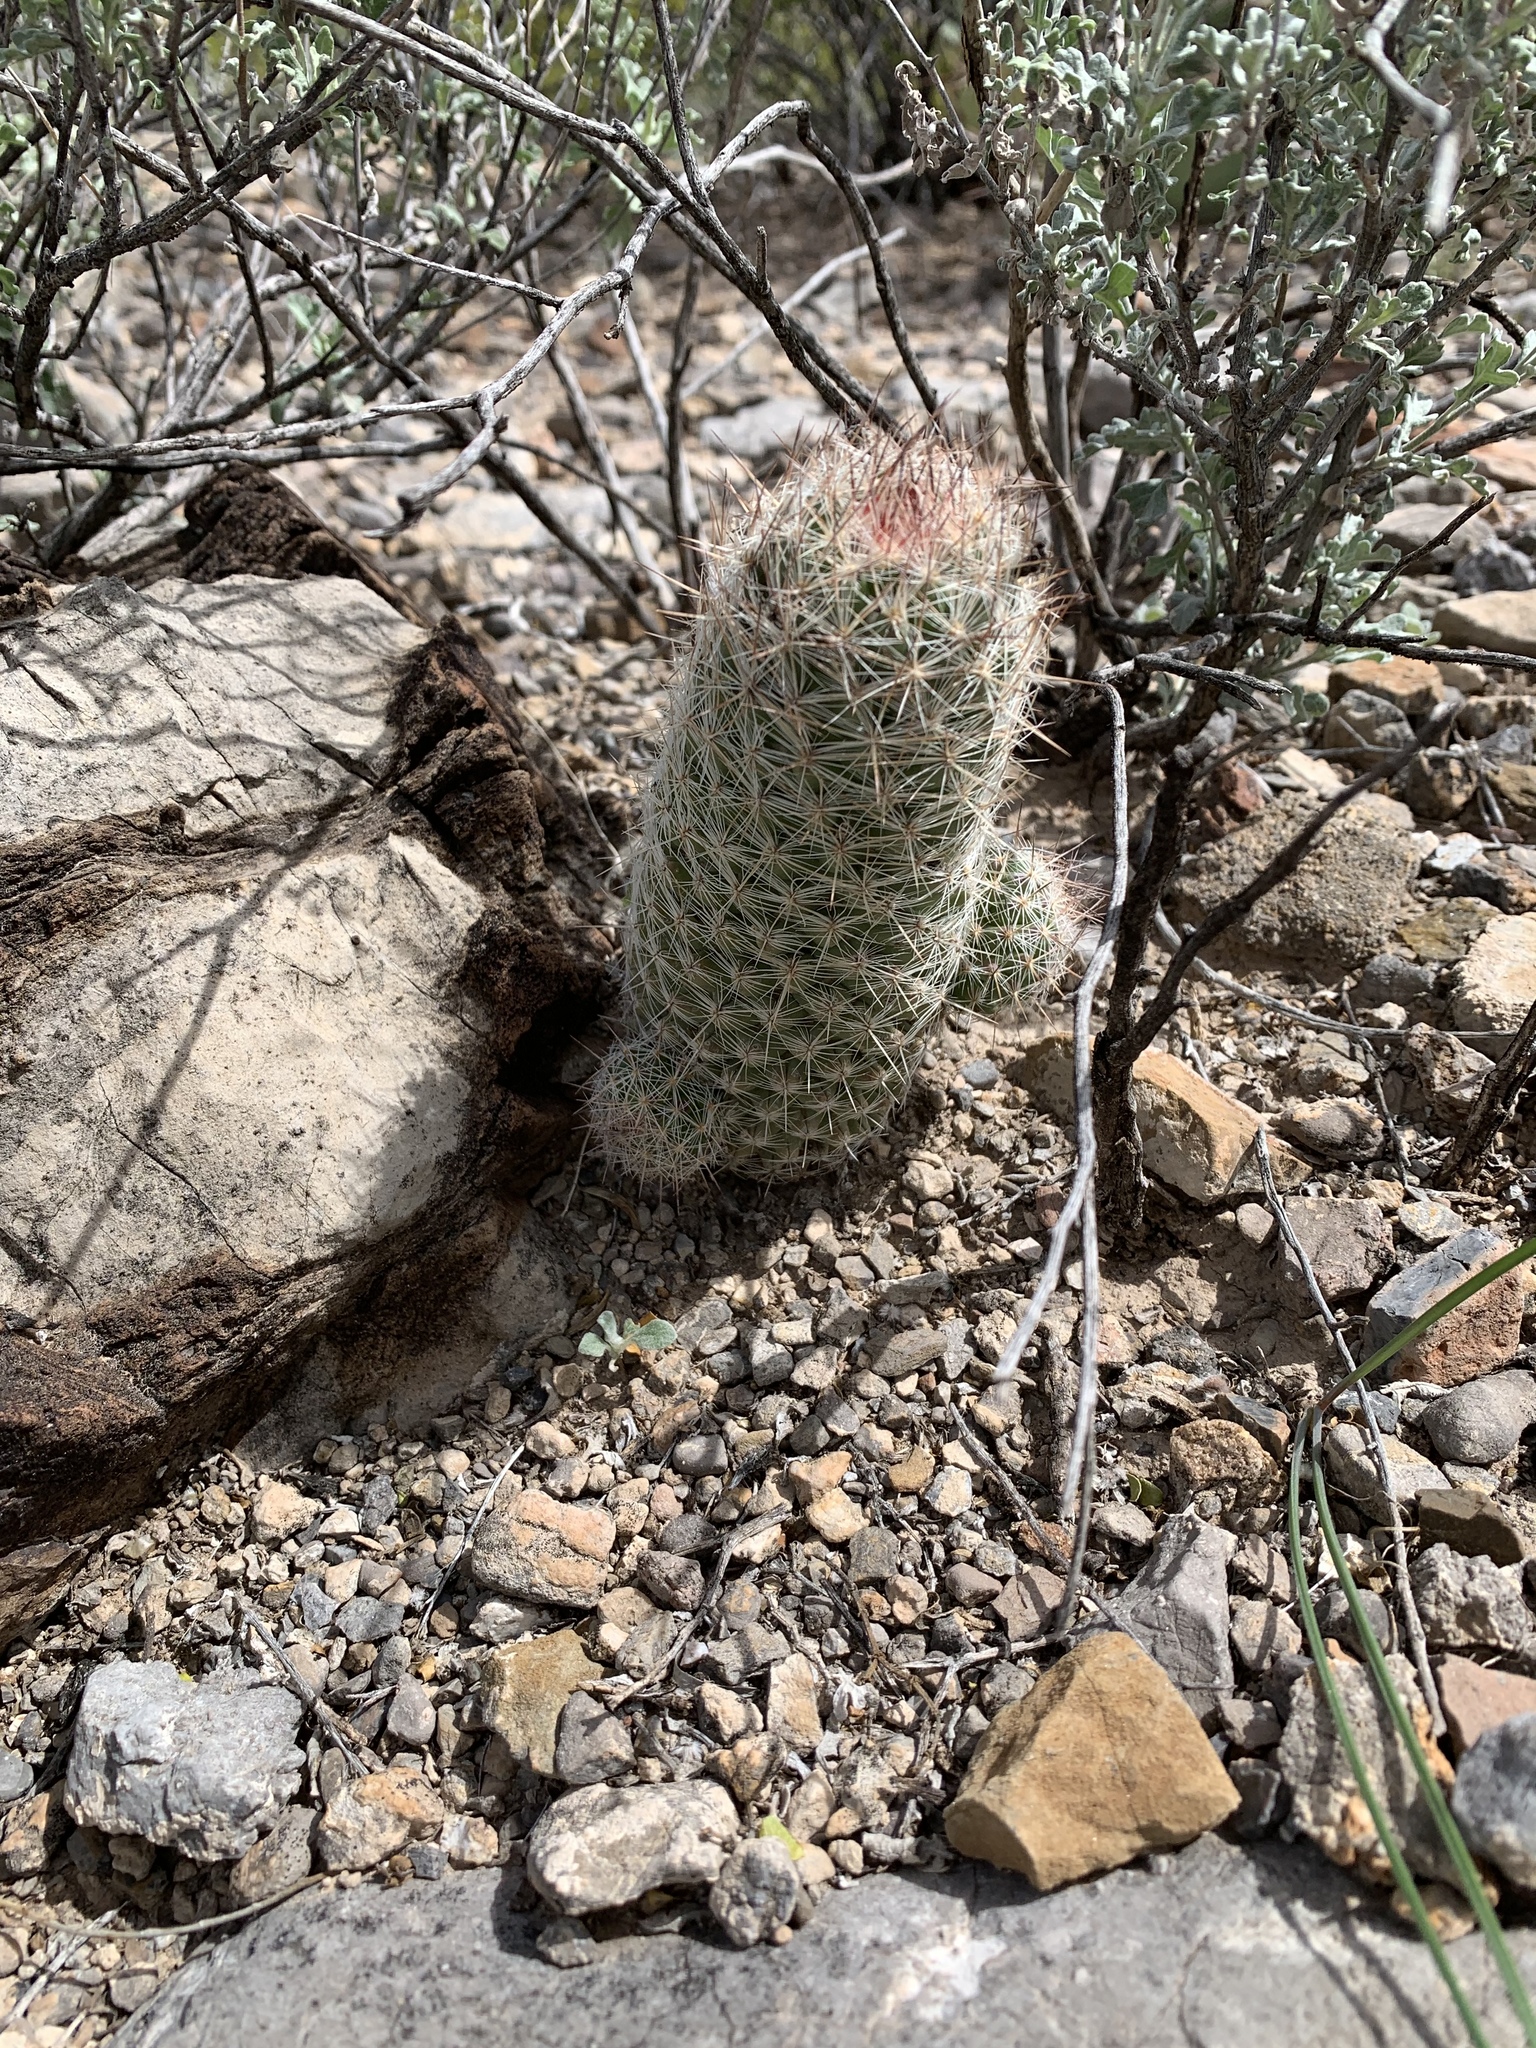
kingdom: Plantae
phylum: Tracheophyta
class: Magnoliopsida
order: Caryophyllales
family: Cactaceae
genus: Pelecyphora
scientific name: Pelecyphora tuberculosa
